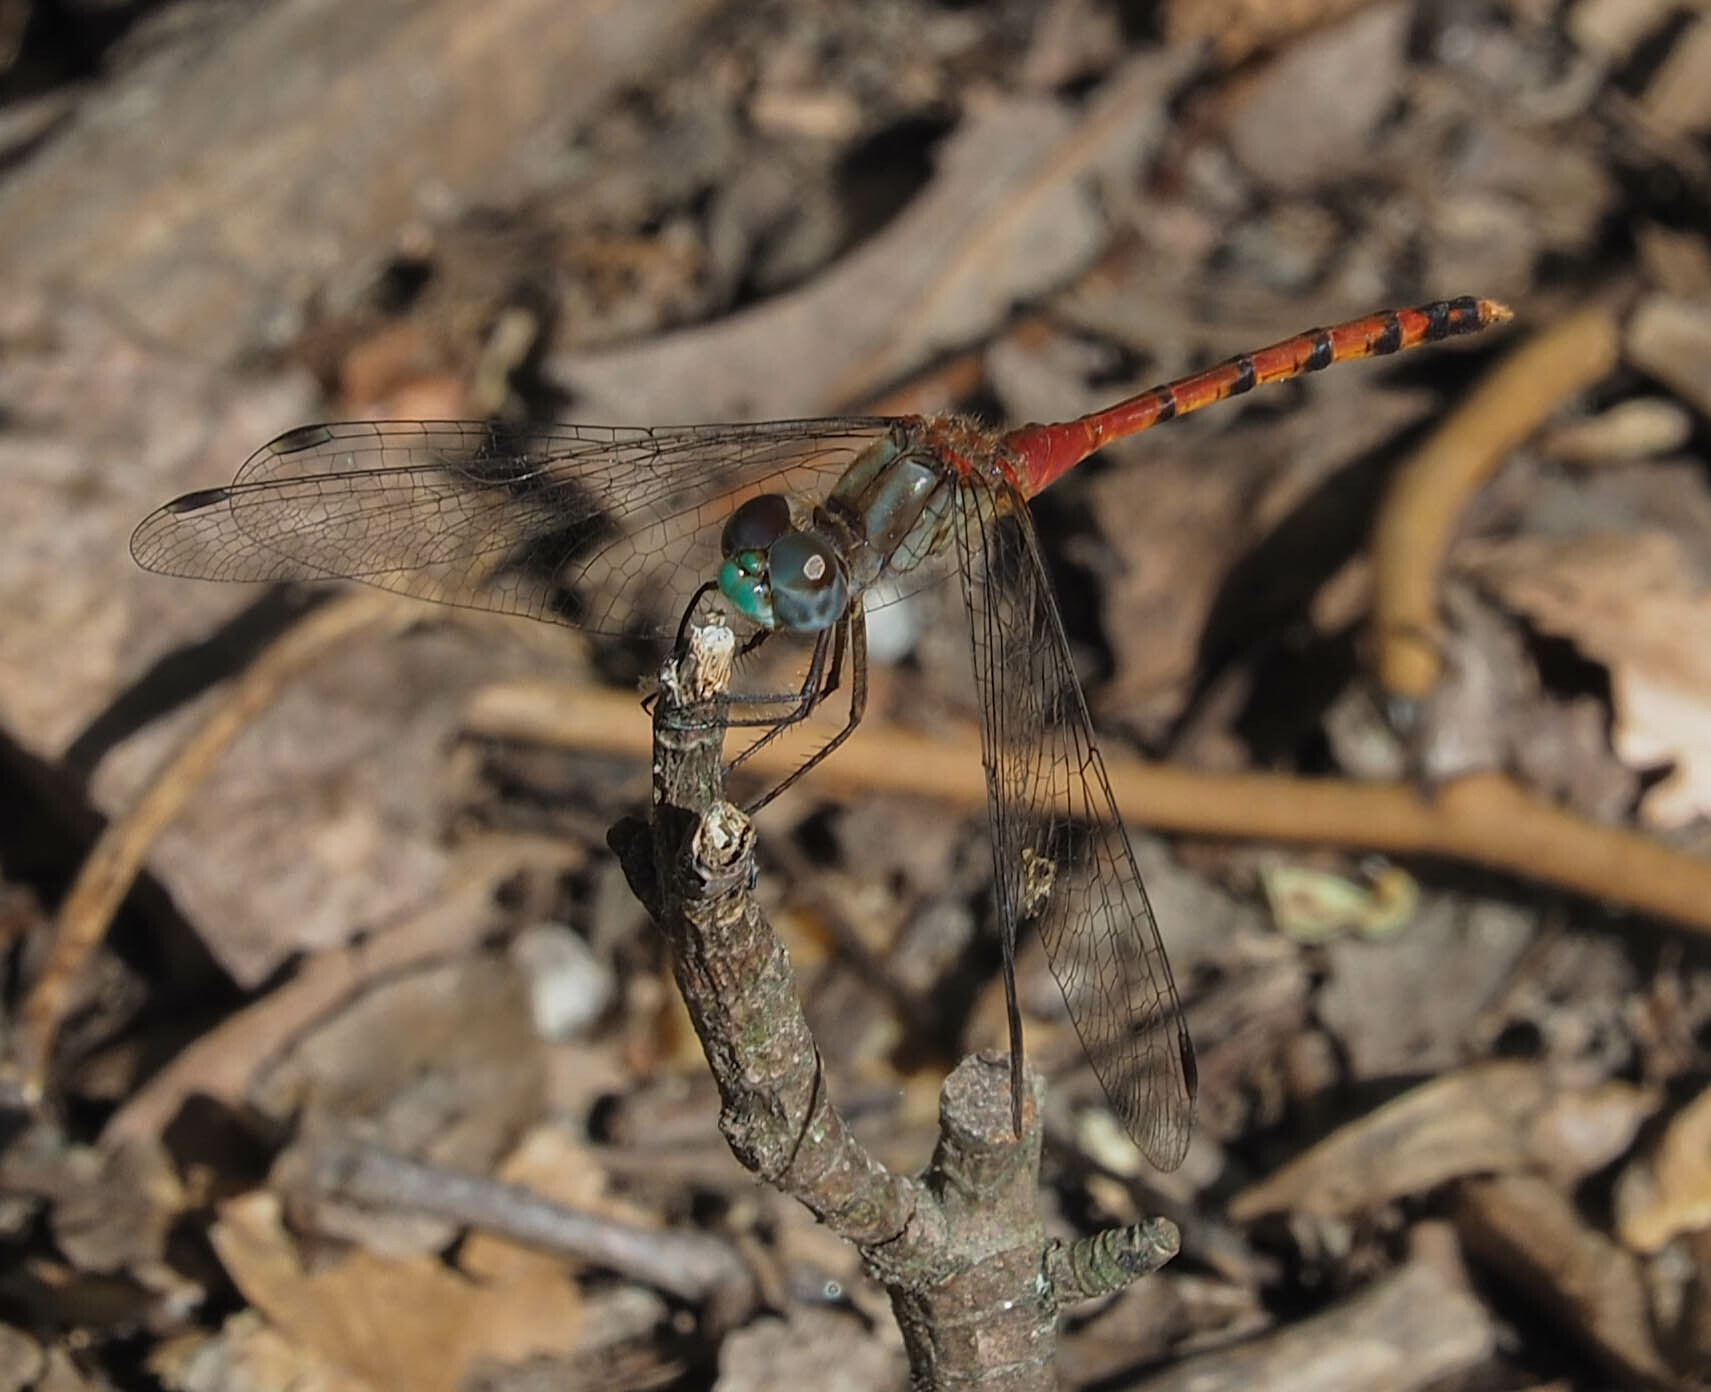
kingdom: Animalia
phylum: Arthropoda
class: Insecta
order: Odonata
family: Libellulidae
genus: Sympetrum
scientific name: Sympetrum ambiguum
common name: Blue-faced meadowhawk
